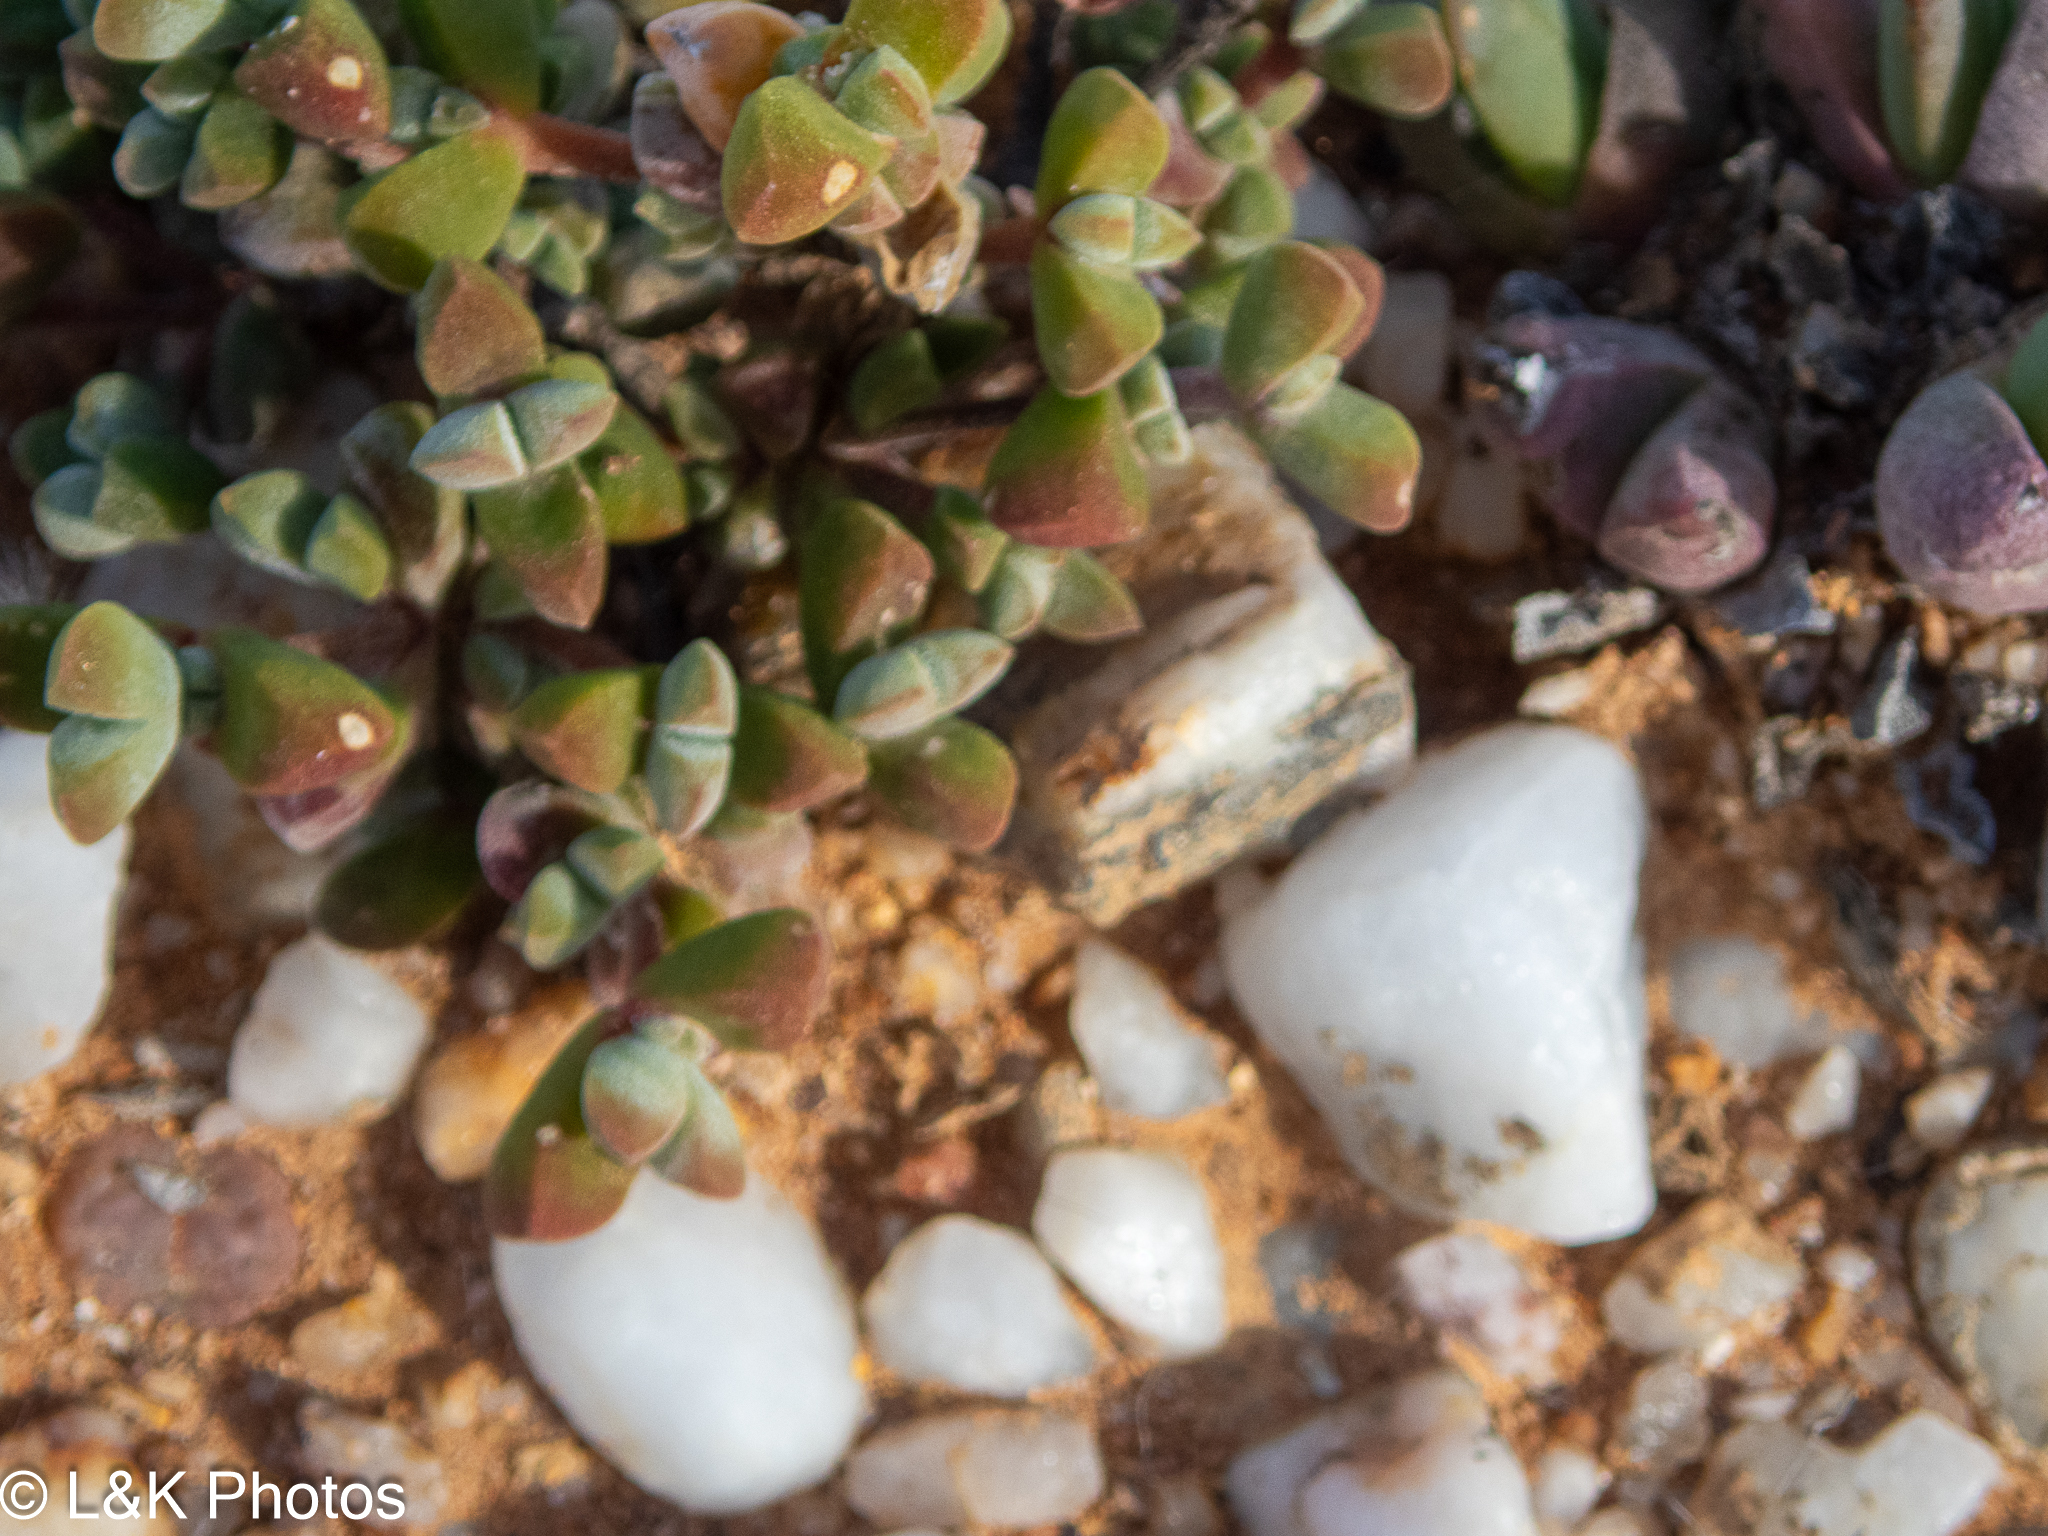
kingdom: Plantae
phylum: Tracheophyta
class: Magnoliopsida
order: Caryophyllales
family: Aizoaceae
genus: Drosanthemopsis
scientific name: Drosanthemopsis diversifolia
